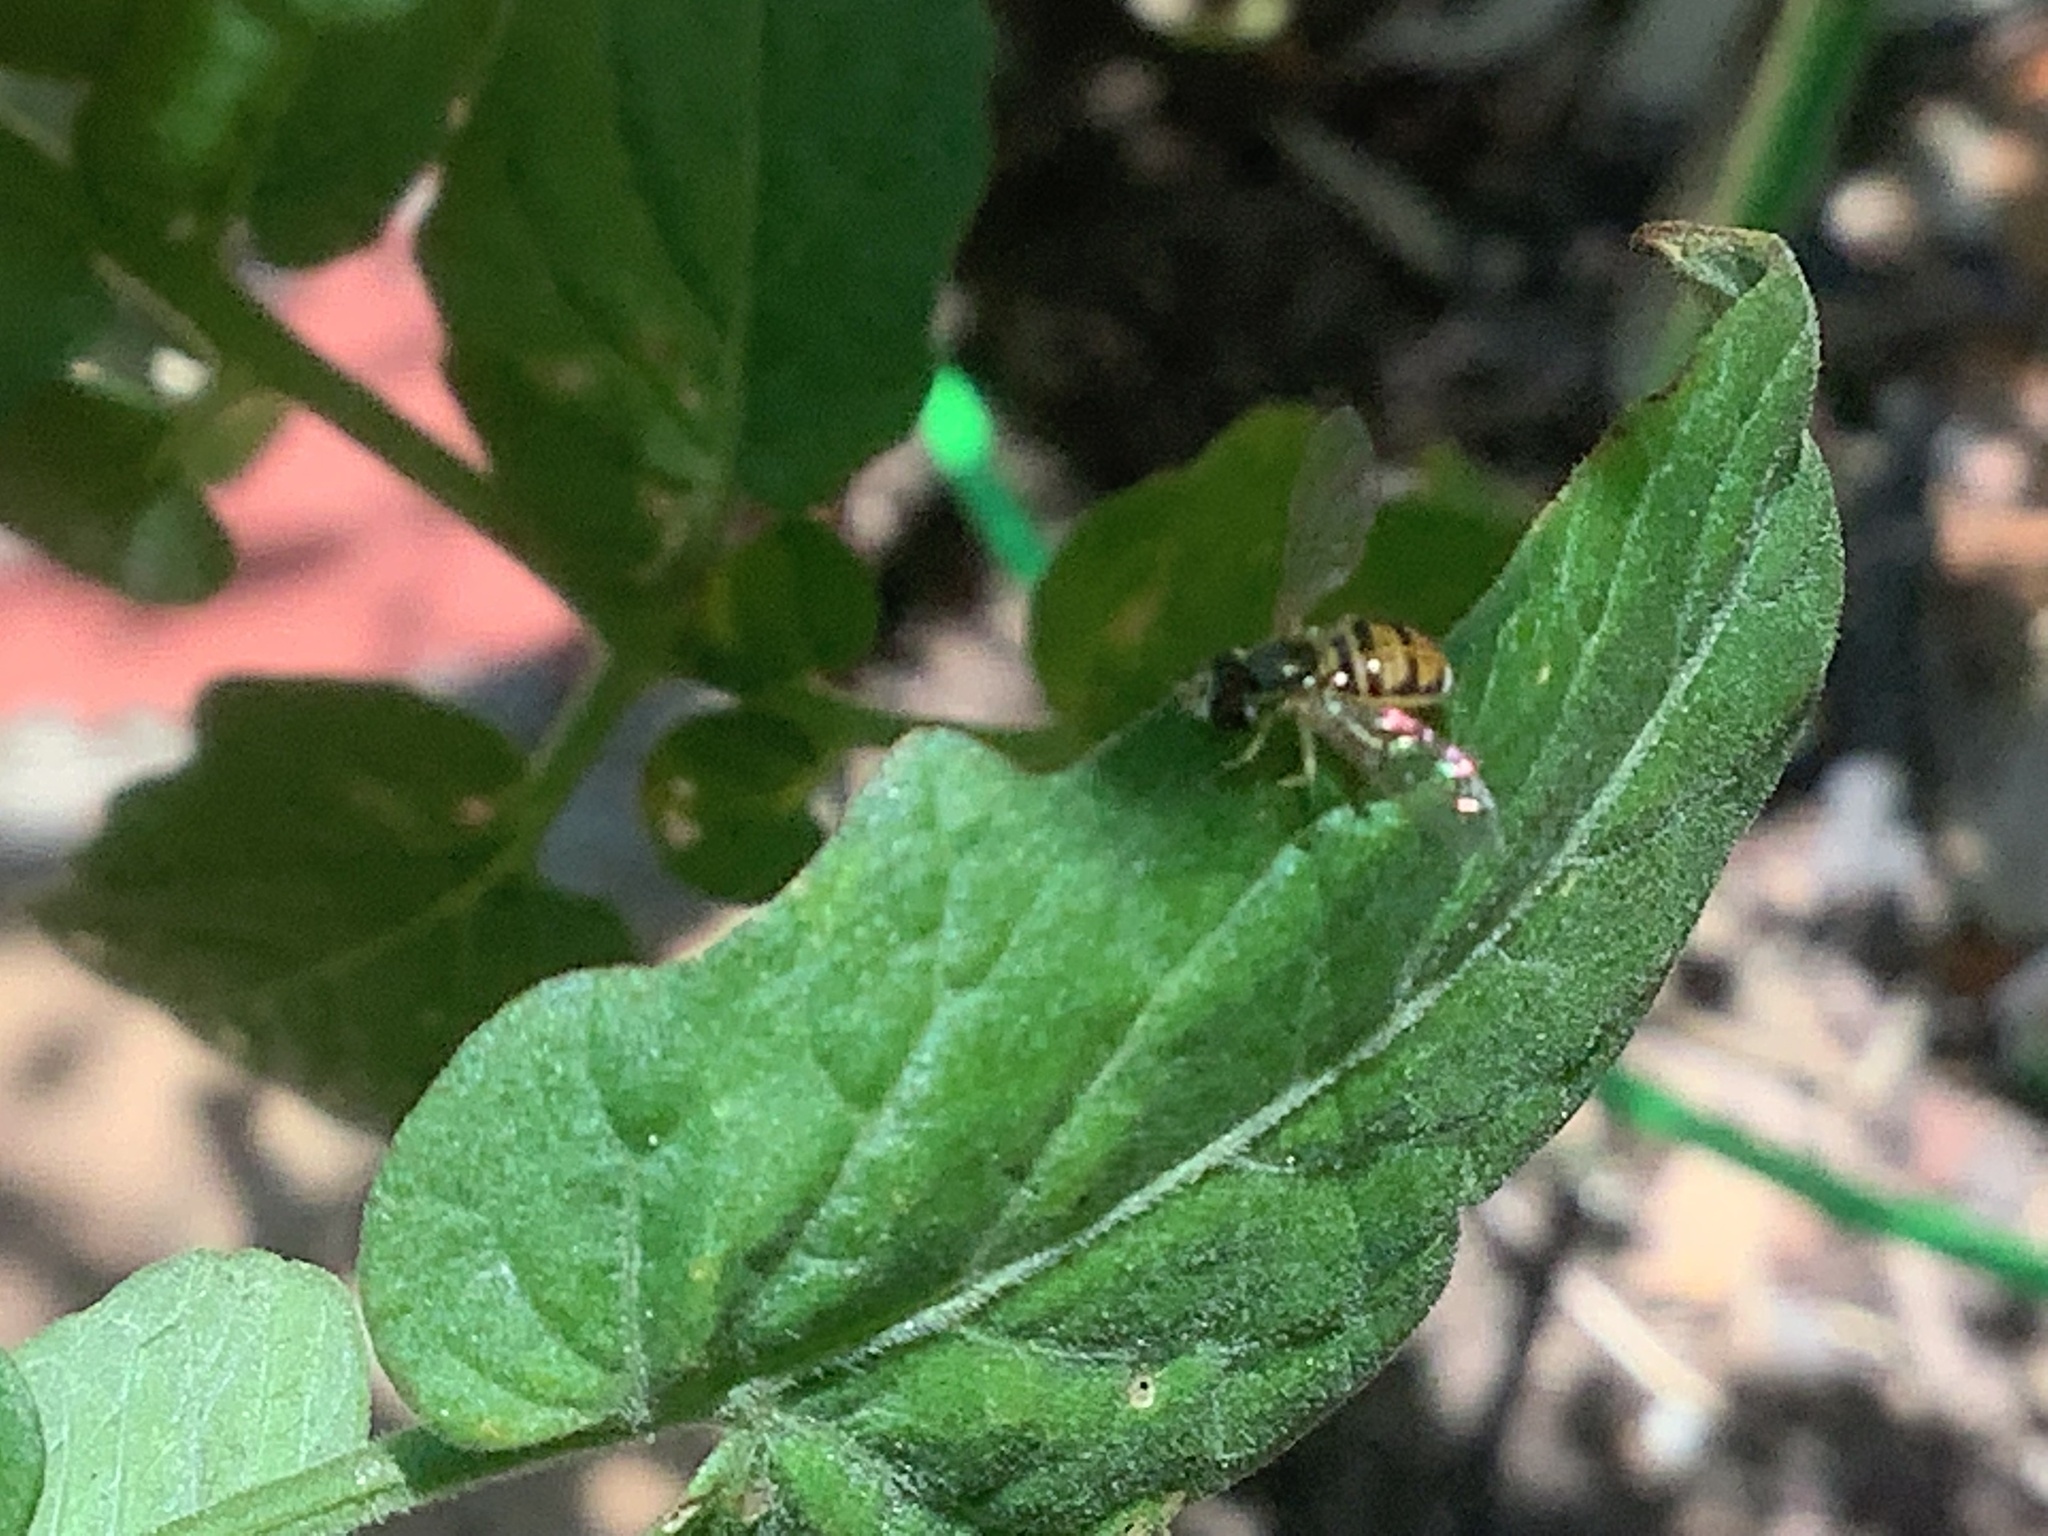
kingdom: Animalia
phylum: Arthropoda
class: Insecta
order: Diptera
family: Syrphidae
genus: Toxomerus
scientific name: Toxomerus marginatus
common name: Syrphid fly
